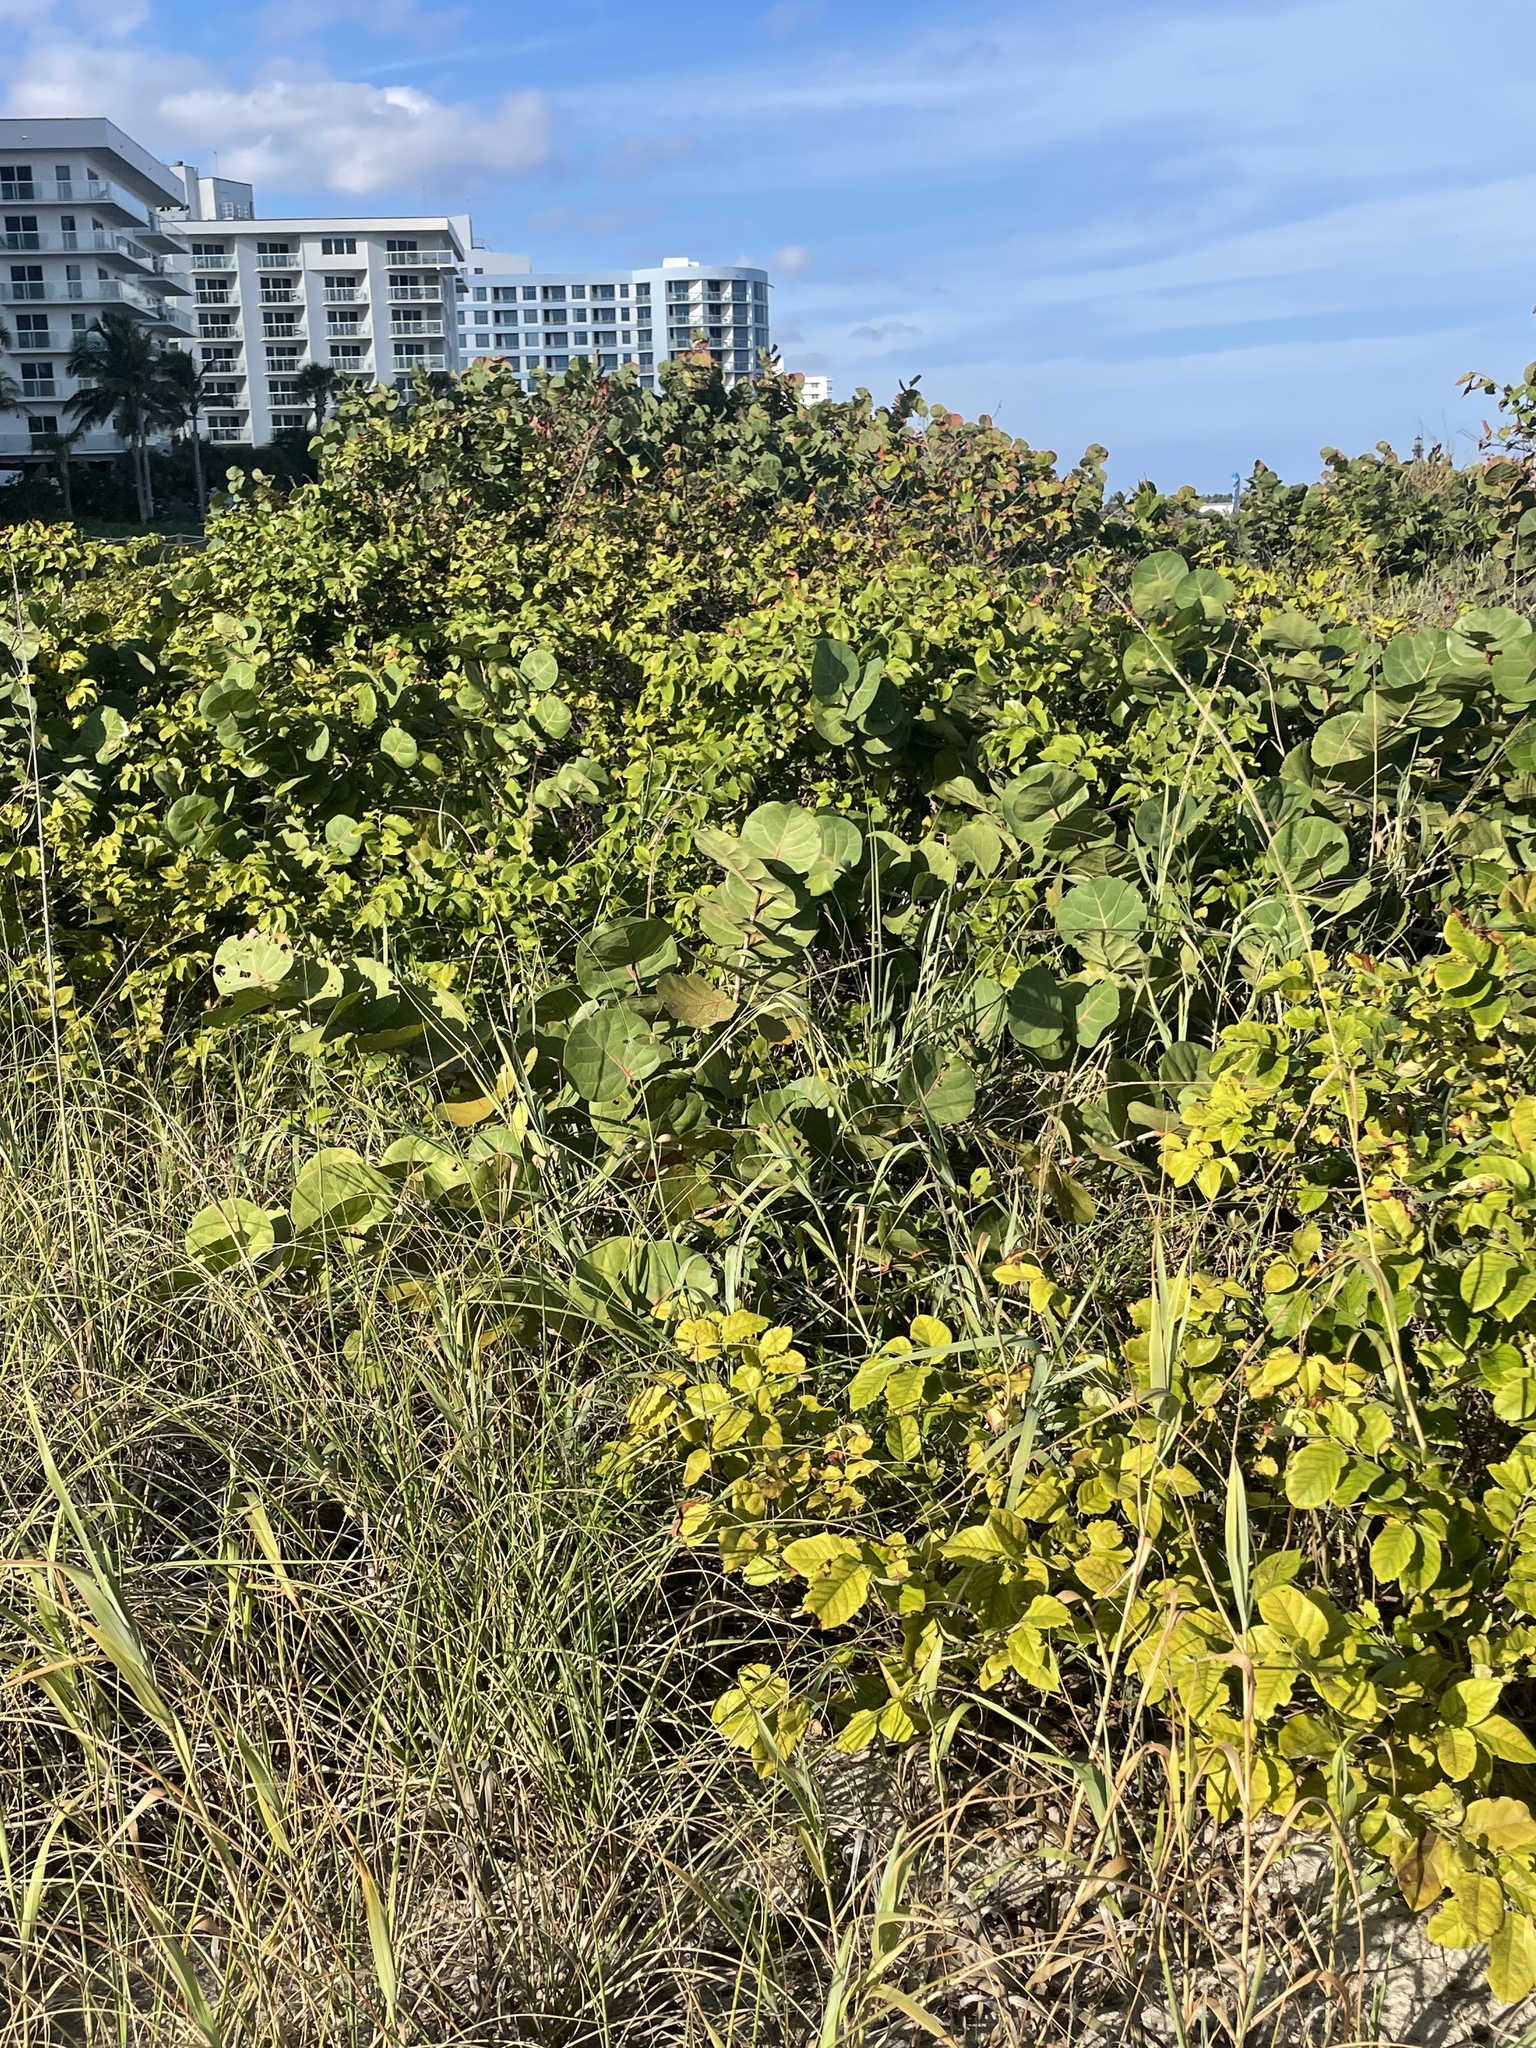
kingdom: Plantae
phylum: Tracheophyta
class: Magnoliopsida
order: Caryophyllales
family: Polygonaceae
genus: Coccoloba
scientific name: Coccoloba uvifera
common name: Seagrape
